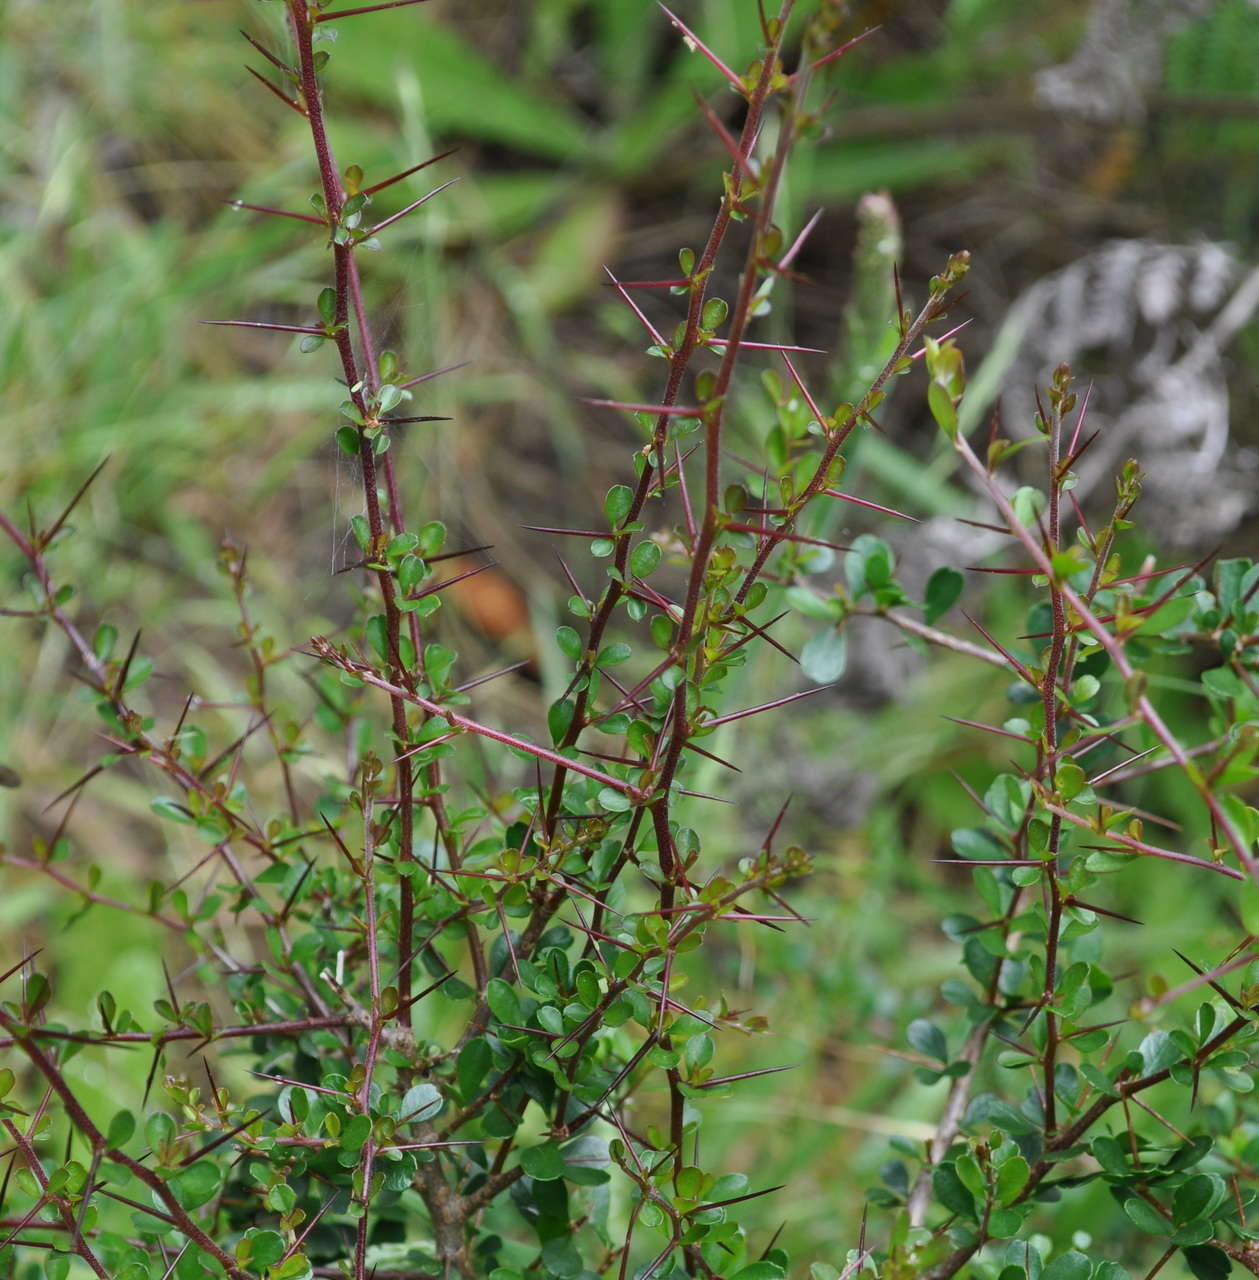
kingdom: Plantae
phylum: Tracheophyta
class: Magnoliopsida
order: Apiales
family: Pittosporaceae
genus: Bursaria
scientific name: Bursaria spinosa
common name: Australian blackthorn
